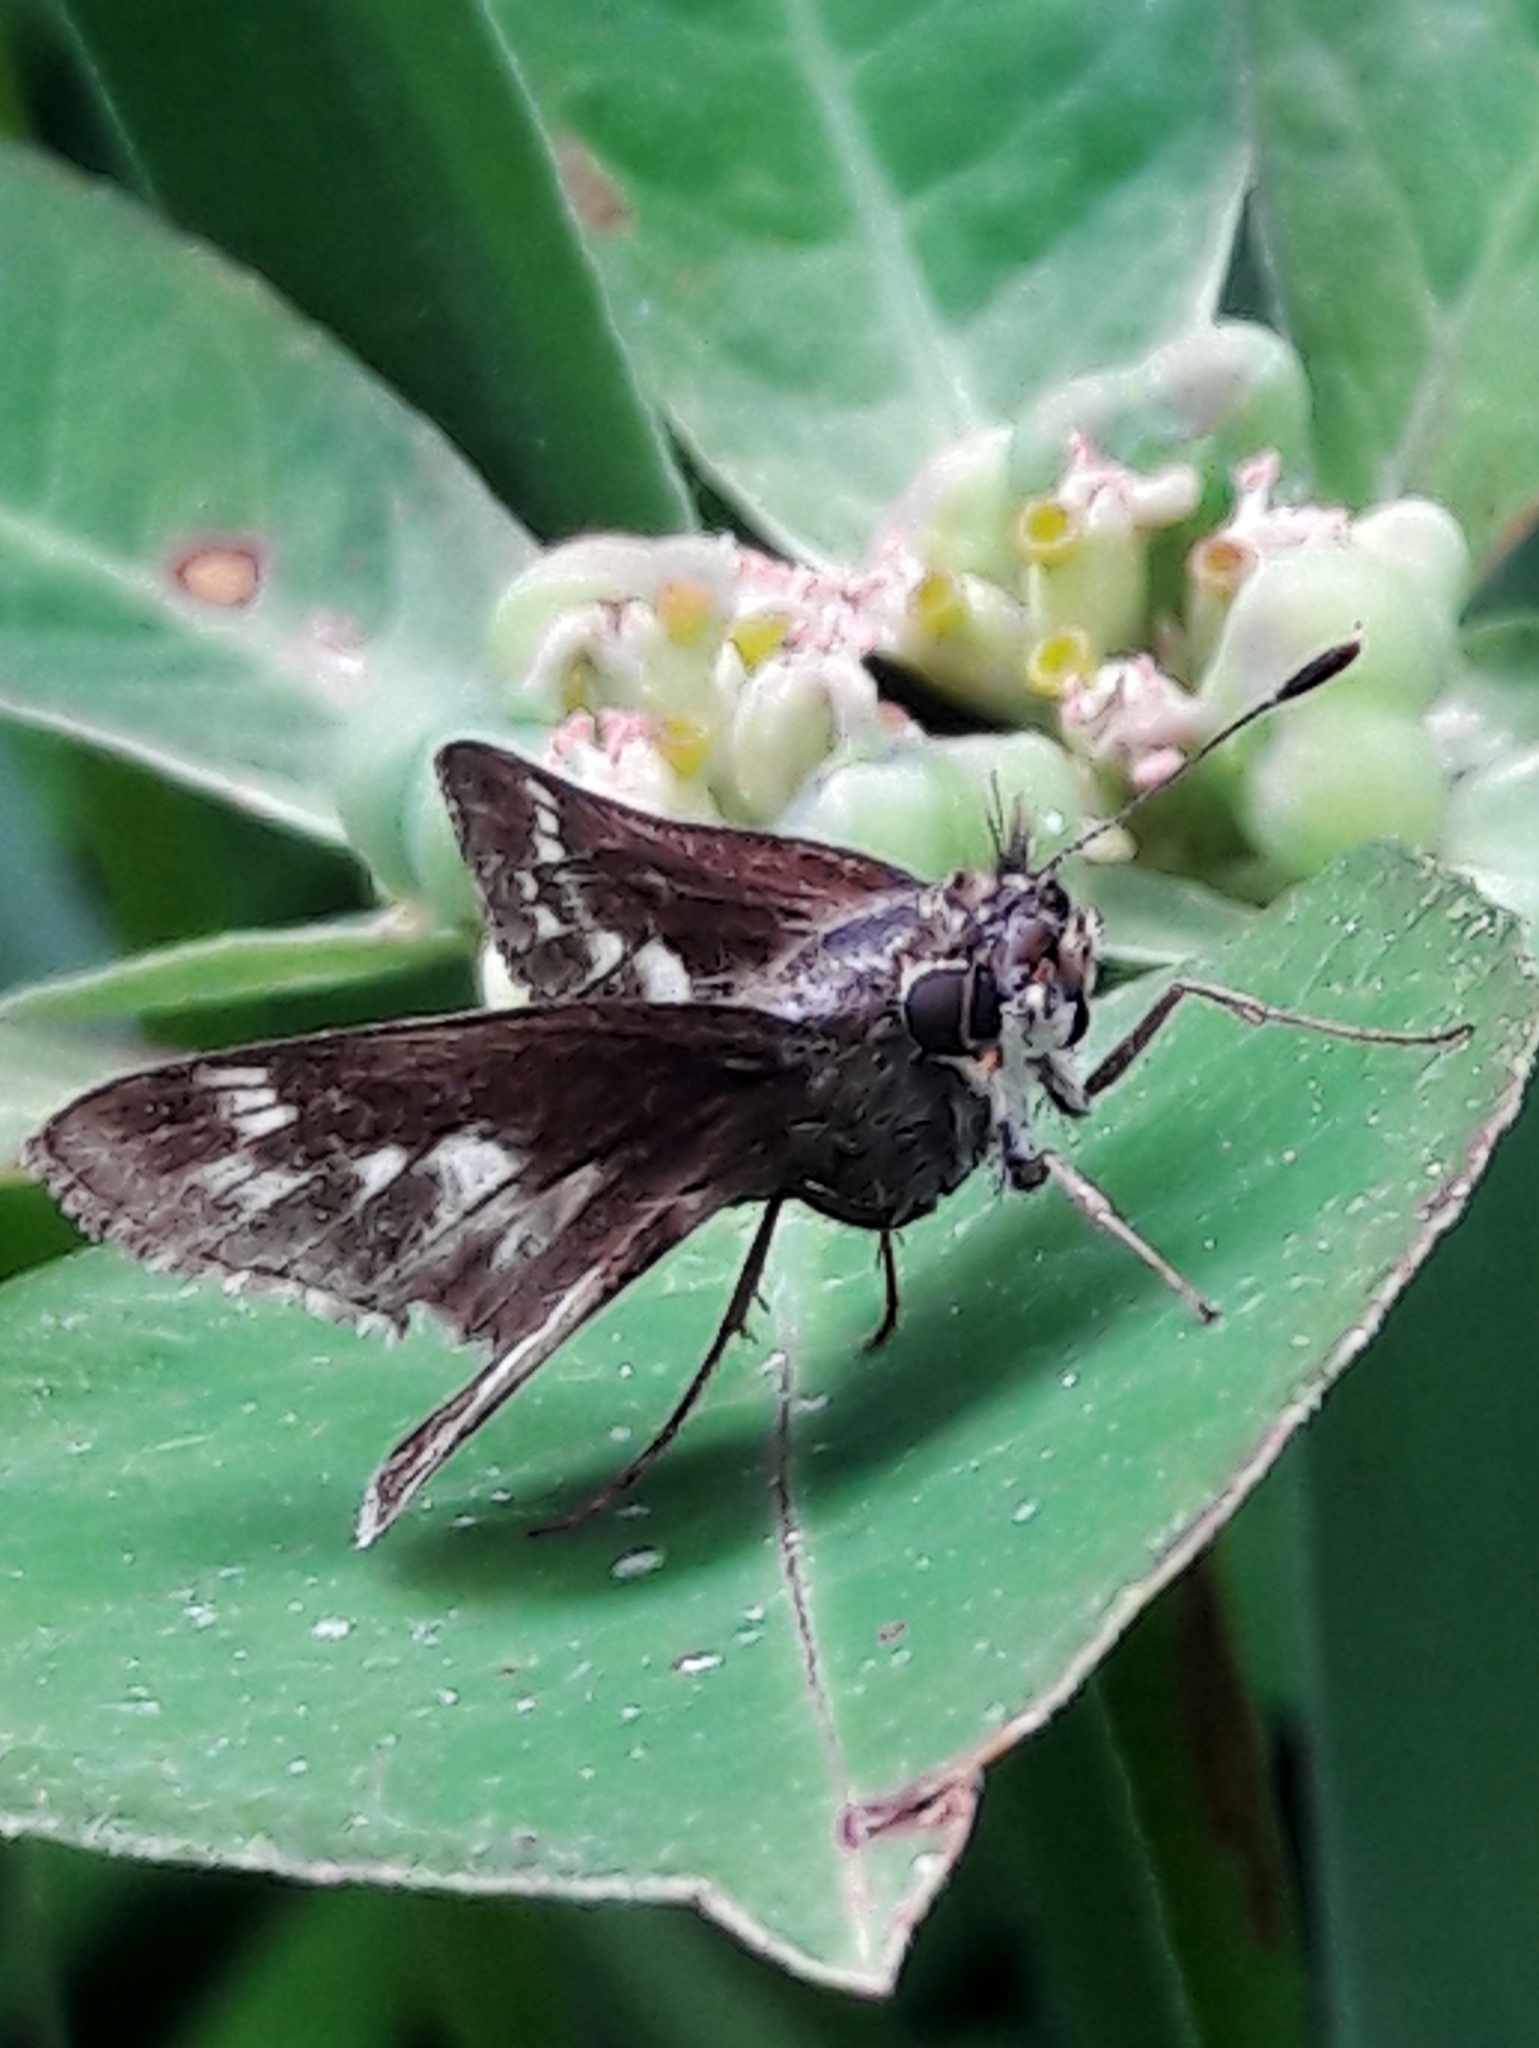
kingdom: Animalia
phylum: Arthropoda
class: Insecta
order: Lepidoptera
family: Hesperiidae
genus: Pompeius
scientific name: Pompeius pompeius
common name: Pompeius skipper
